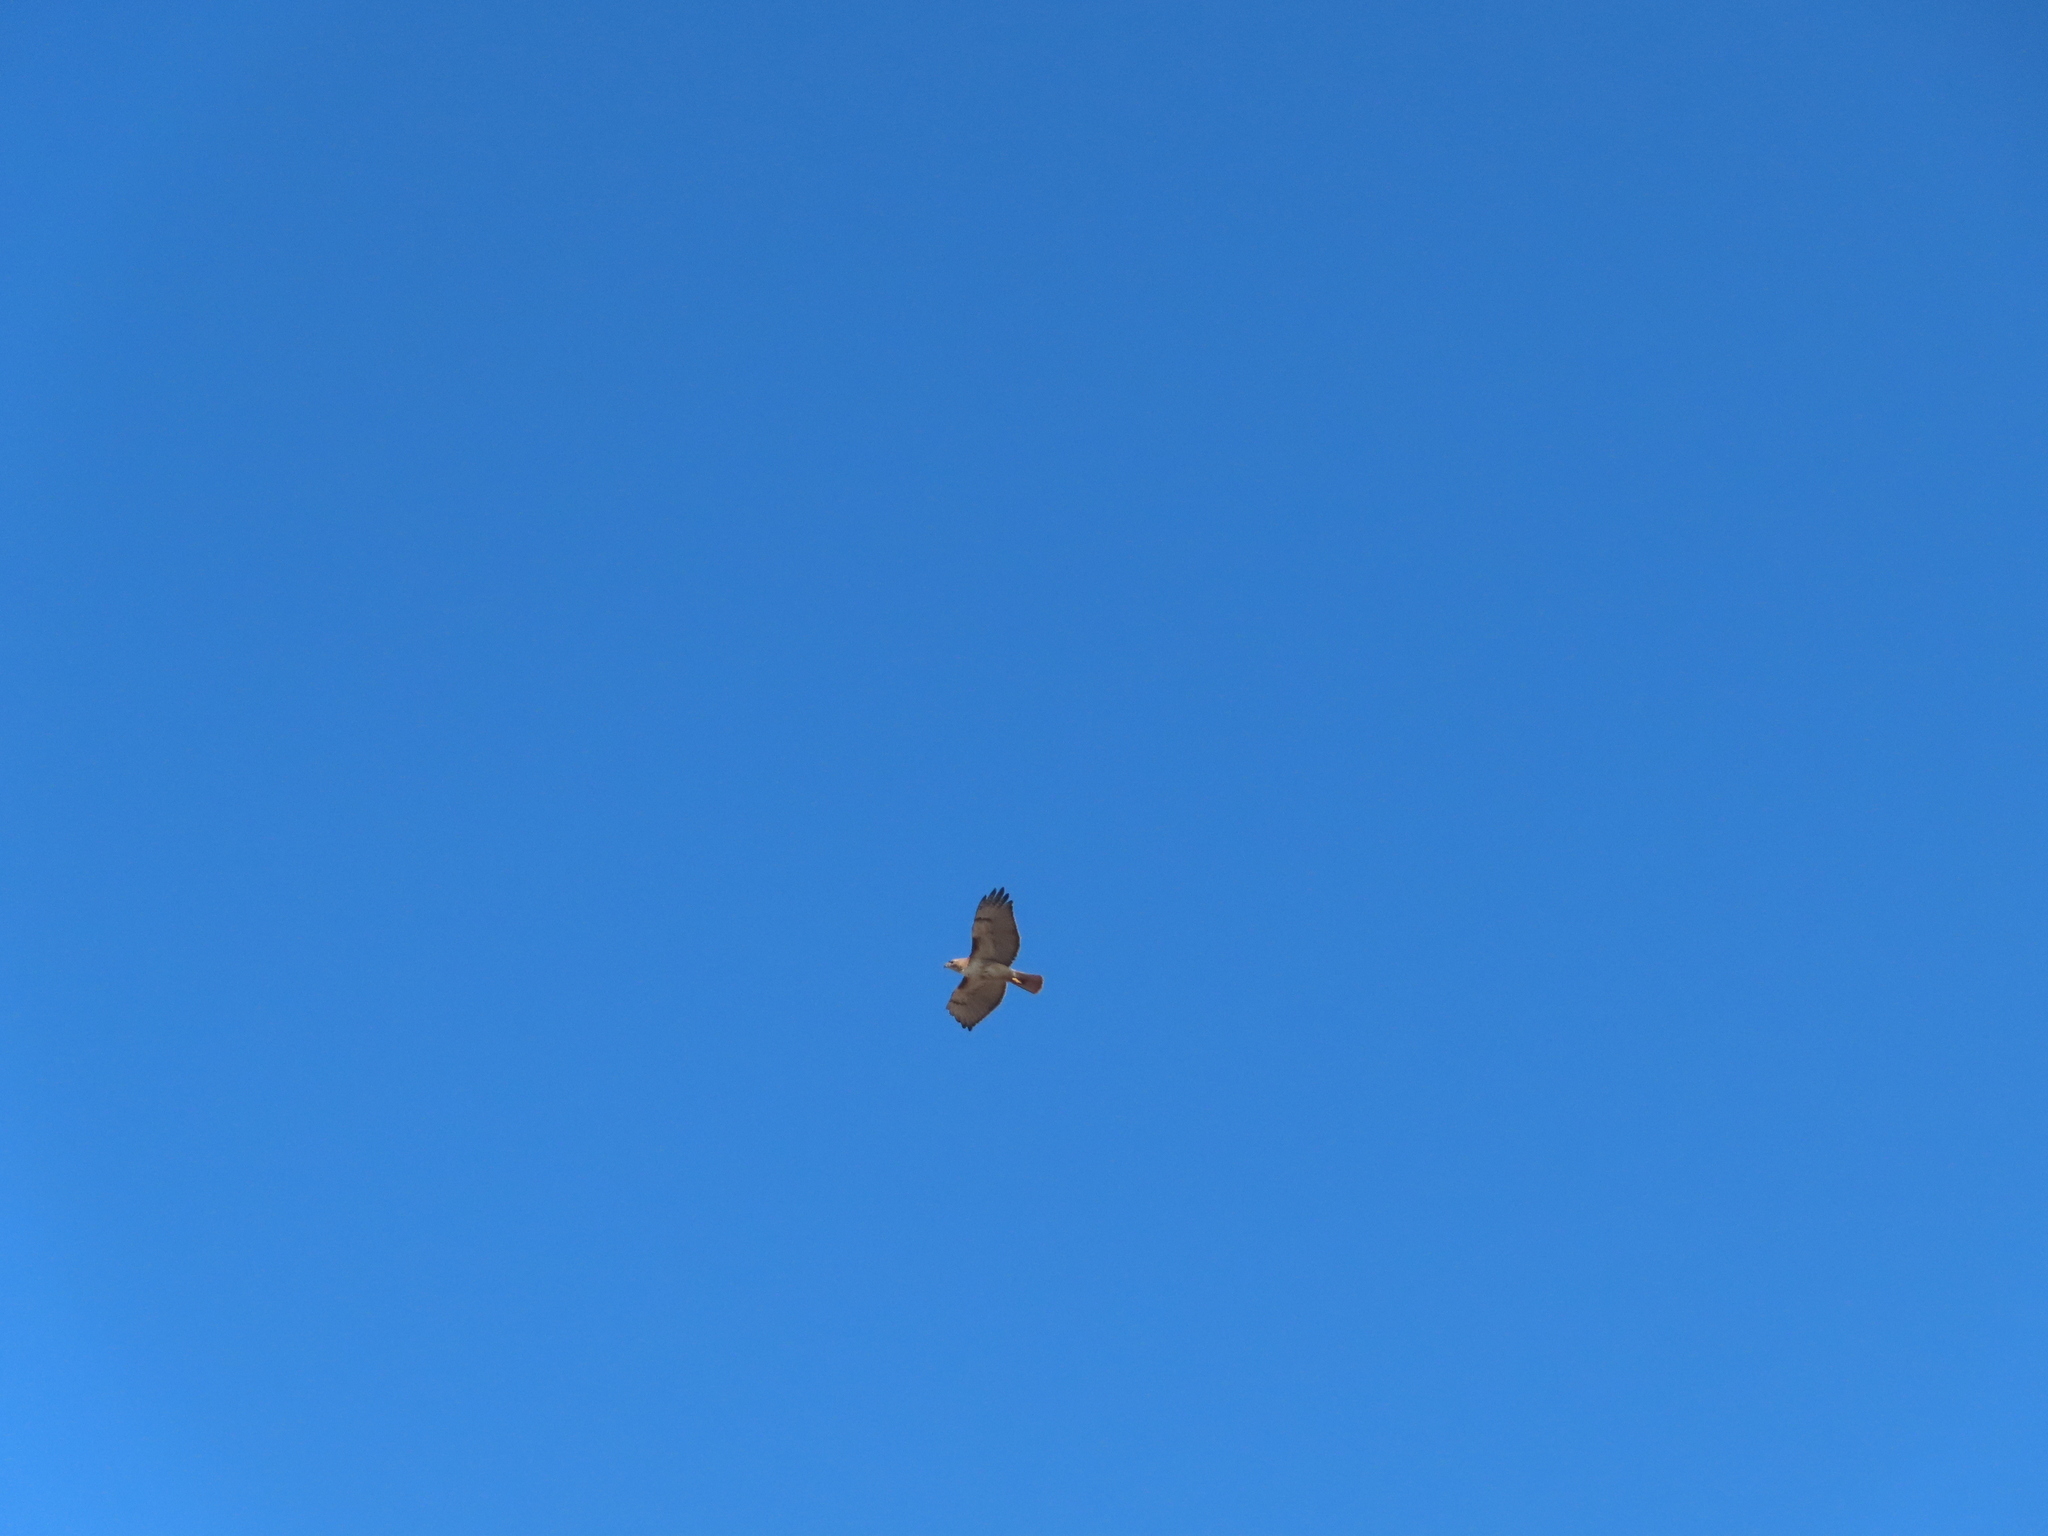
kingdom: Animalia
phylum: Chordata
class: Aves
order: Accipitriformes
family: Accipitridae
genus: Buteo
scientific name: Buteo jamaicensis
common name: Red-tailed hawk
